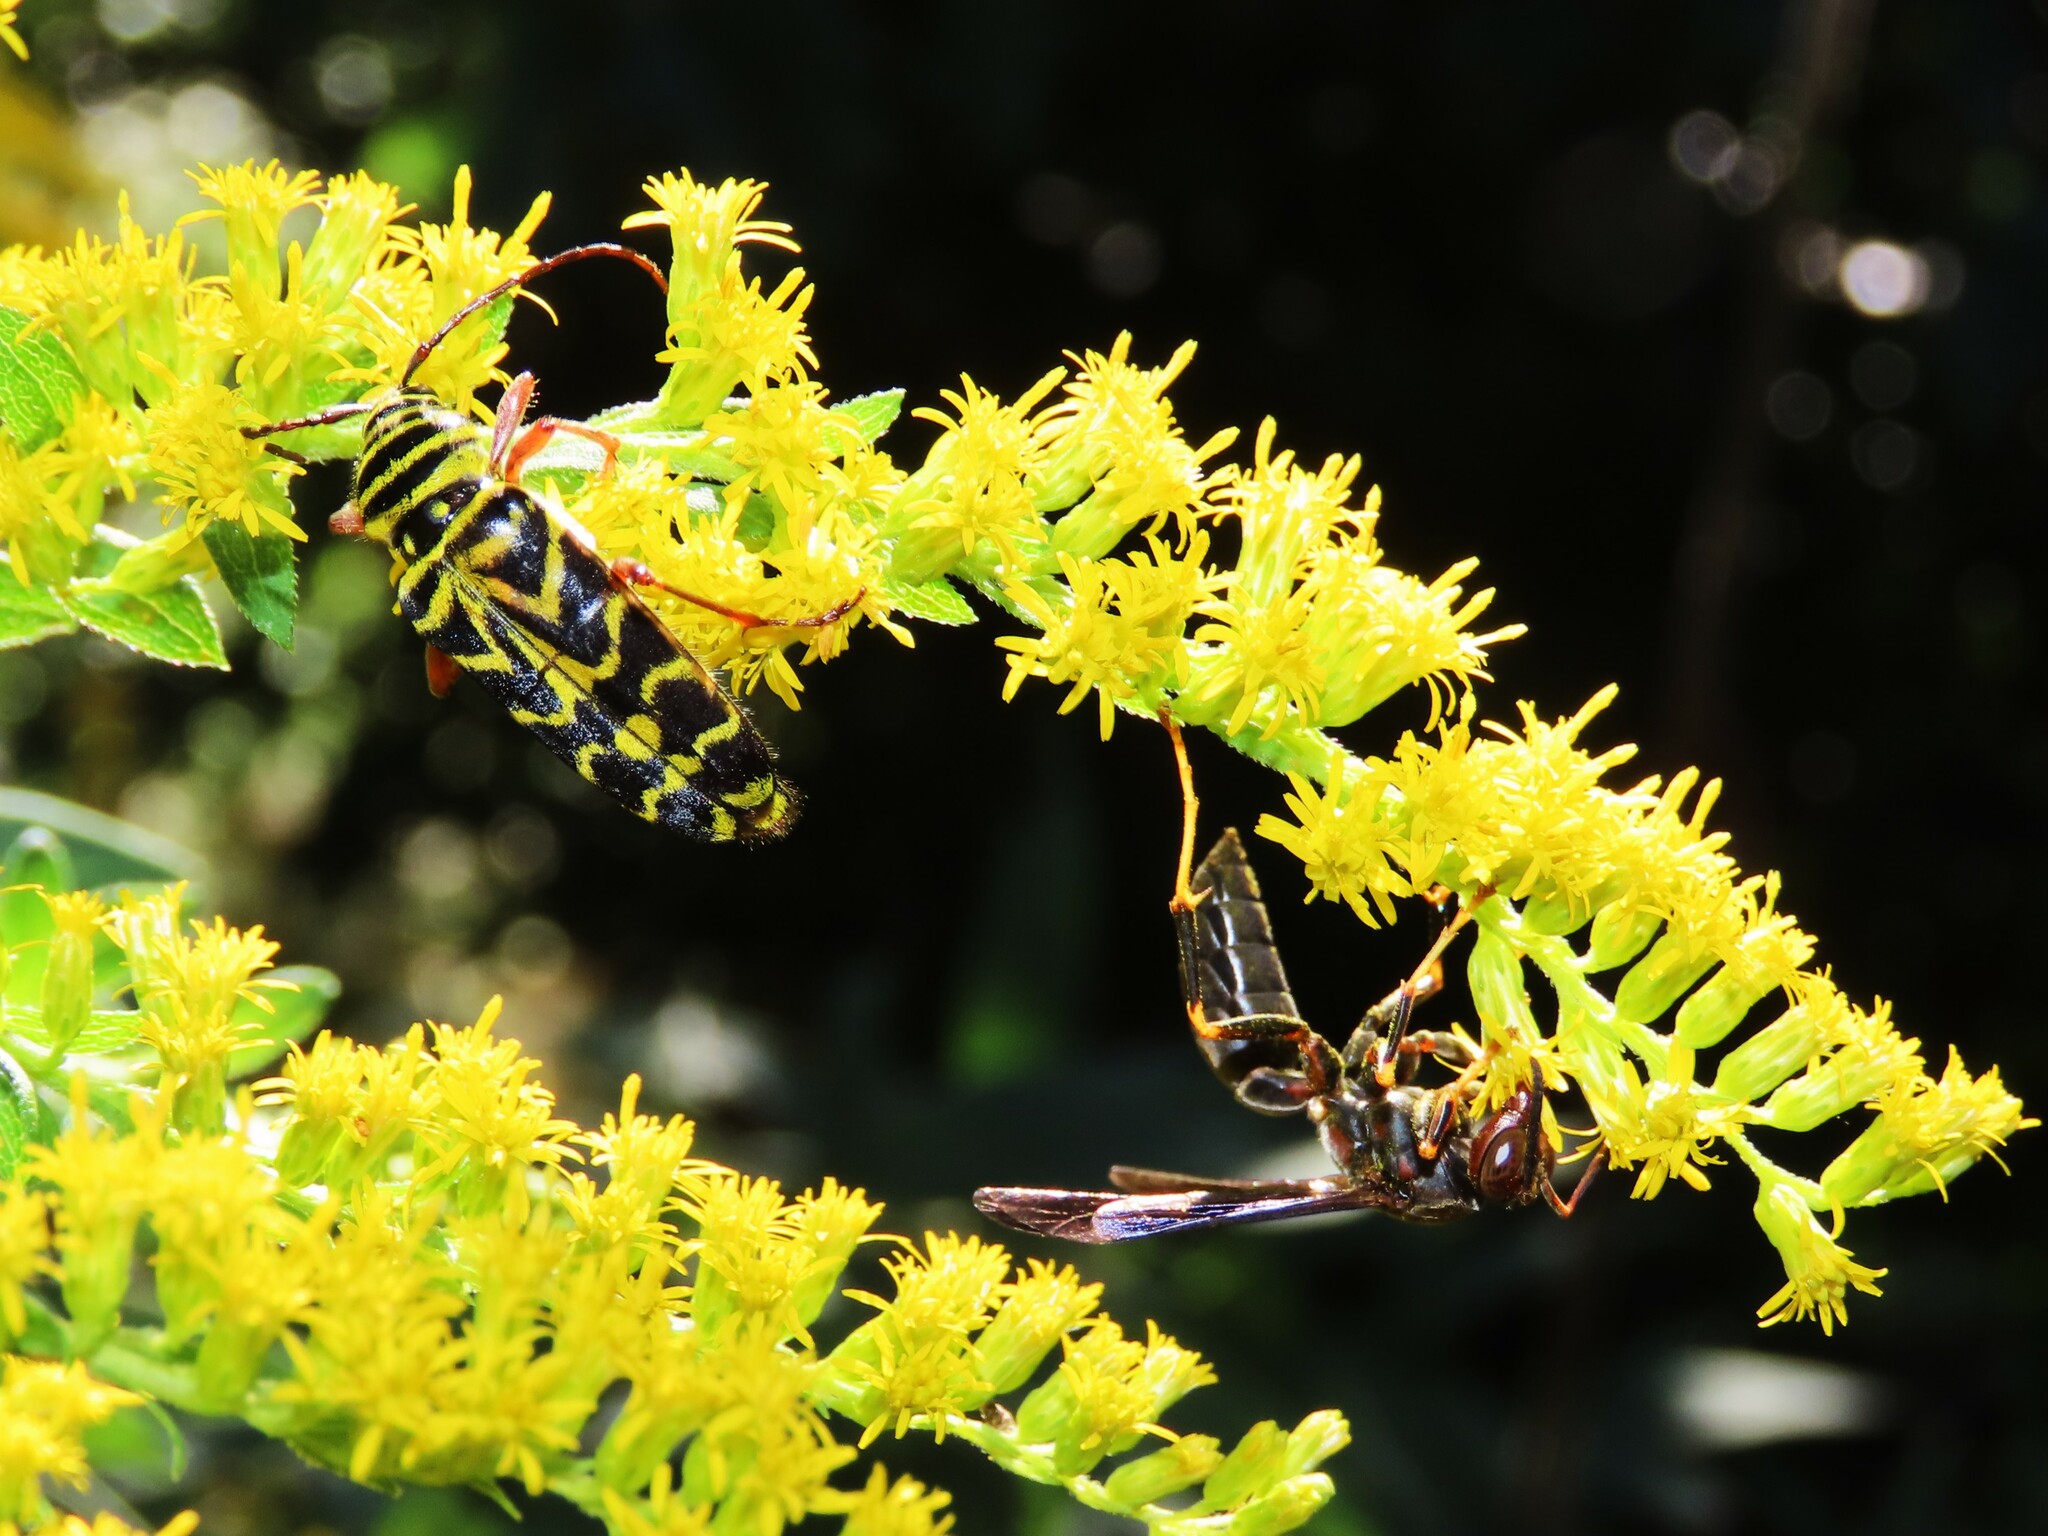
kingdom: Animalia
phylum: Arthropoda
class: Insecta
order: Coleoptera
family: Cerambycidae
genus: Megacyllene
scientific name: Megacyllene robiniae
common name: Locust borer
